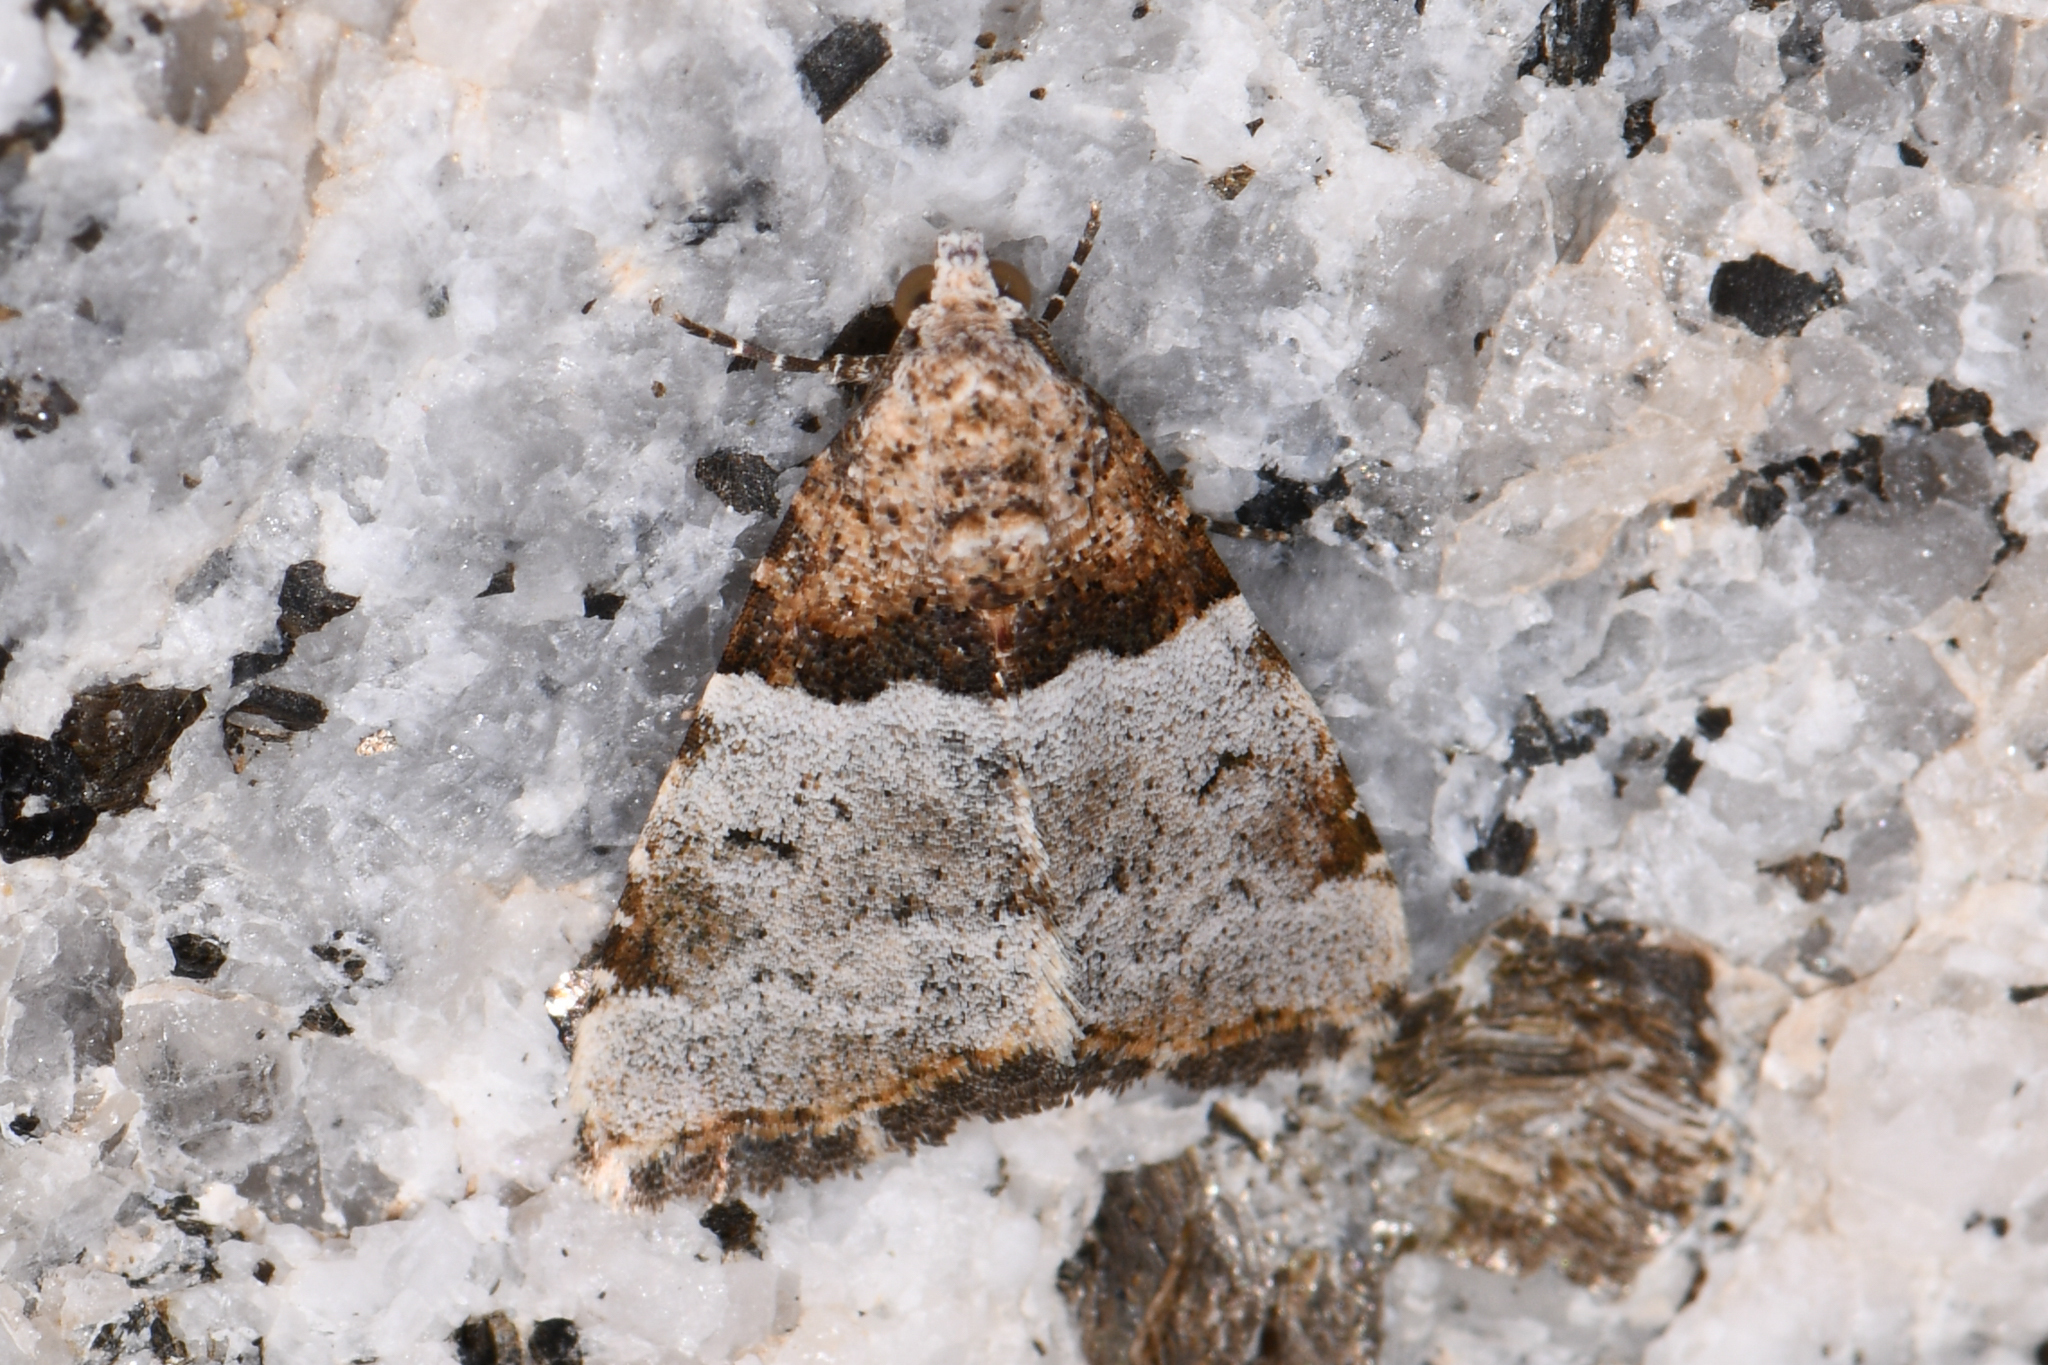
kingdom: Animalia
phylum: Arthropoda
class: Insecta
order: Lepidoptera
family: Noctuidae
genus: Cobubatha
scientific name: Cobubatha dividua
